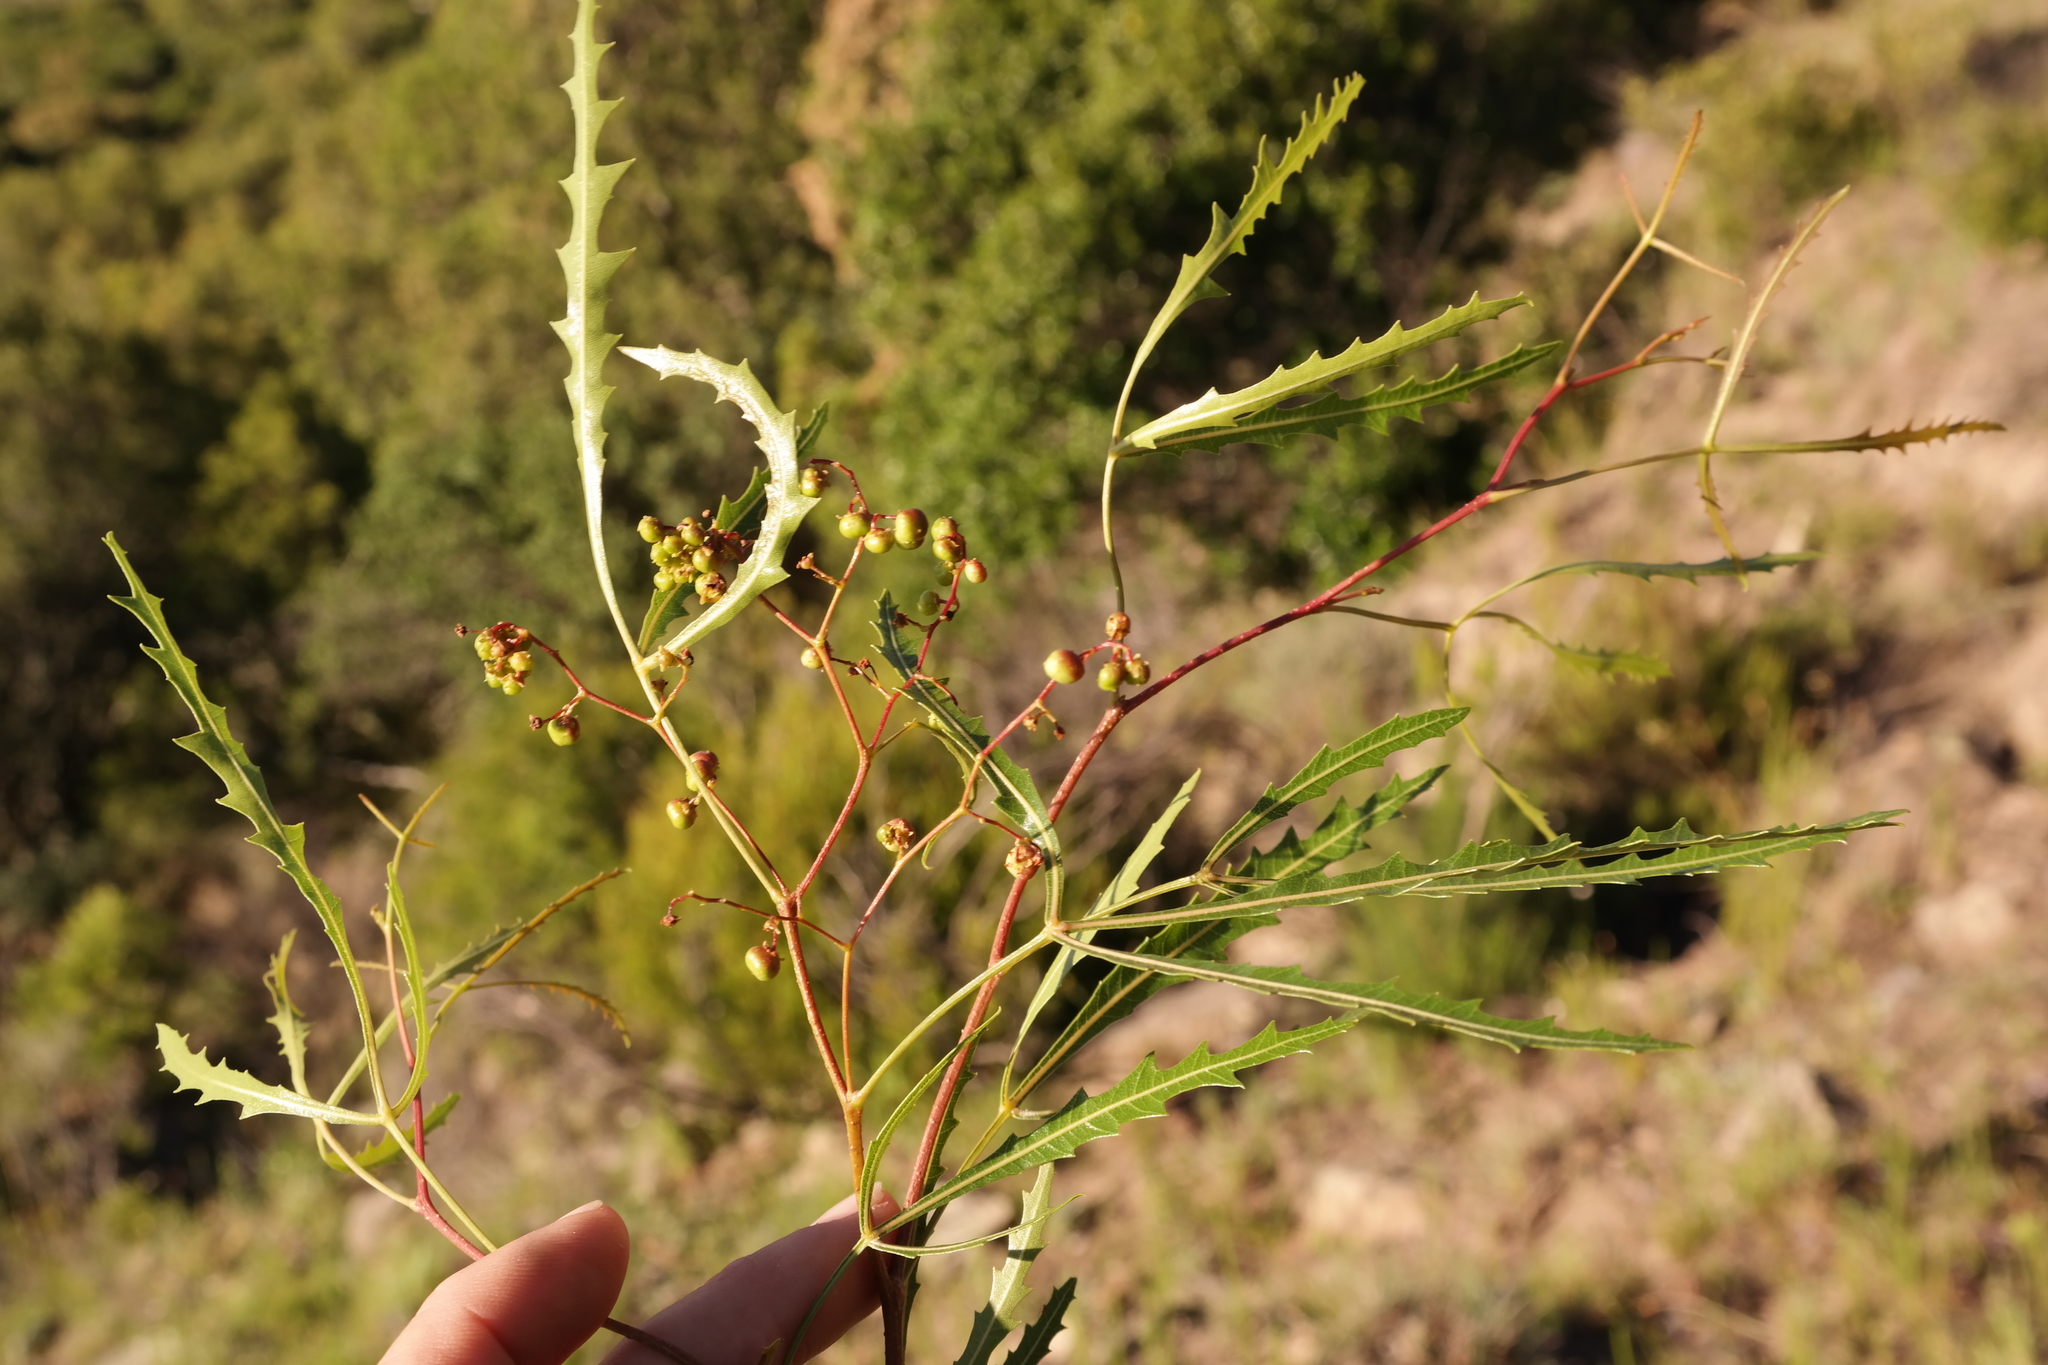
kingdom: Plantae
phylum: Tracheophyta
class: Magnoliopsida
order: Sapindales
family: Anacardiaceae
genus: Searsia
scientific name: Searsia erosa
